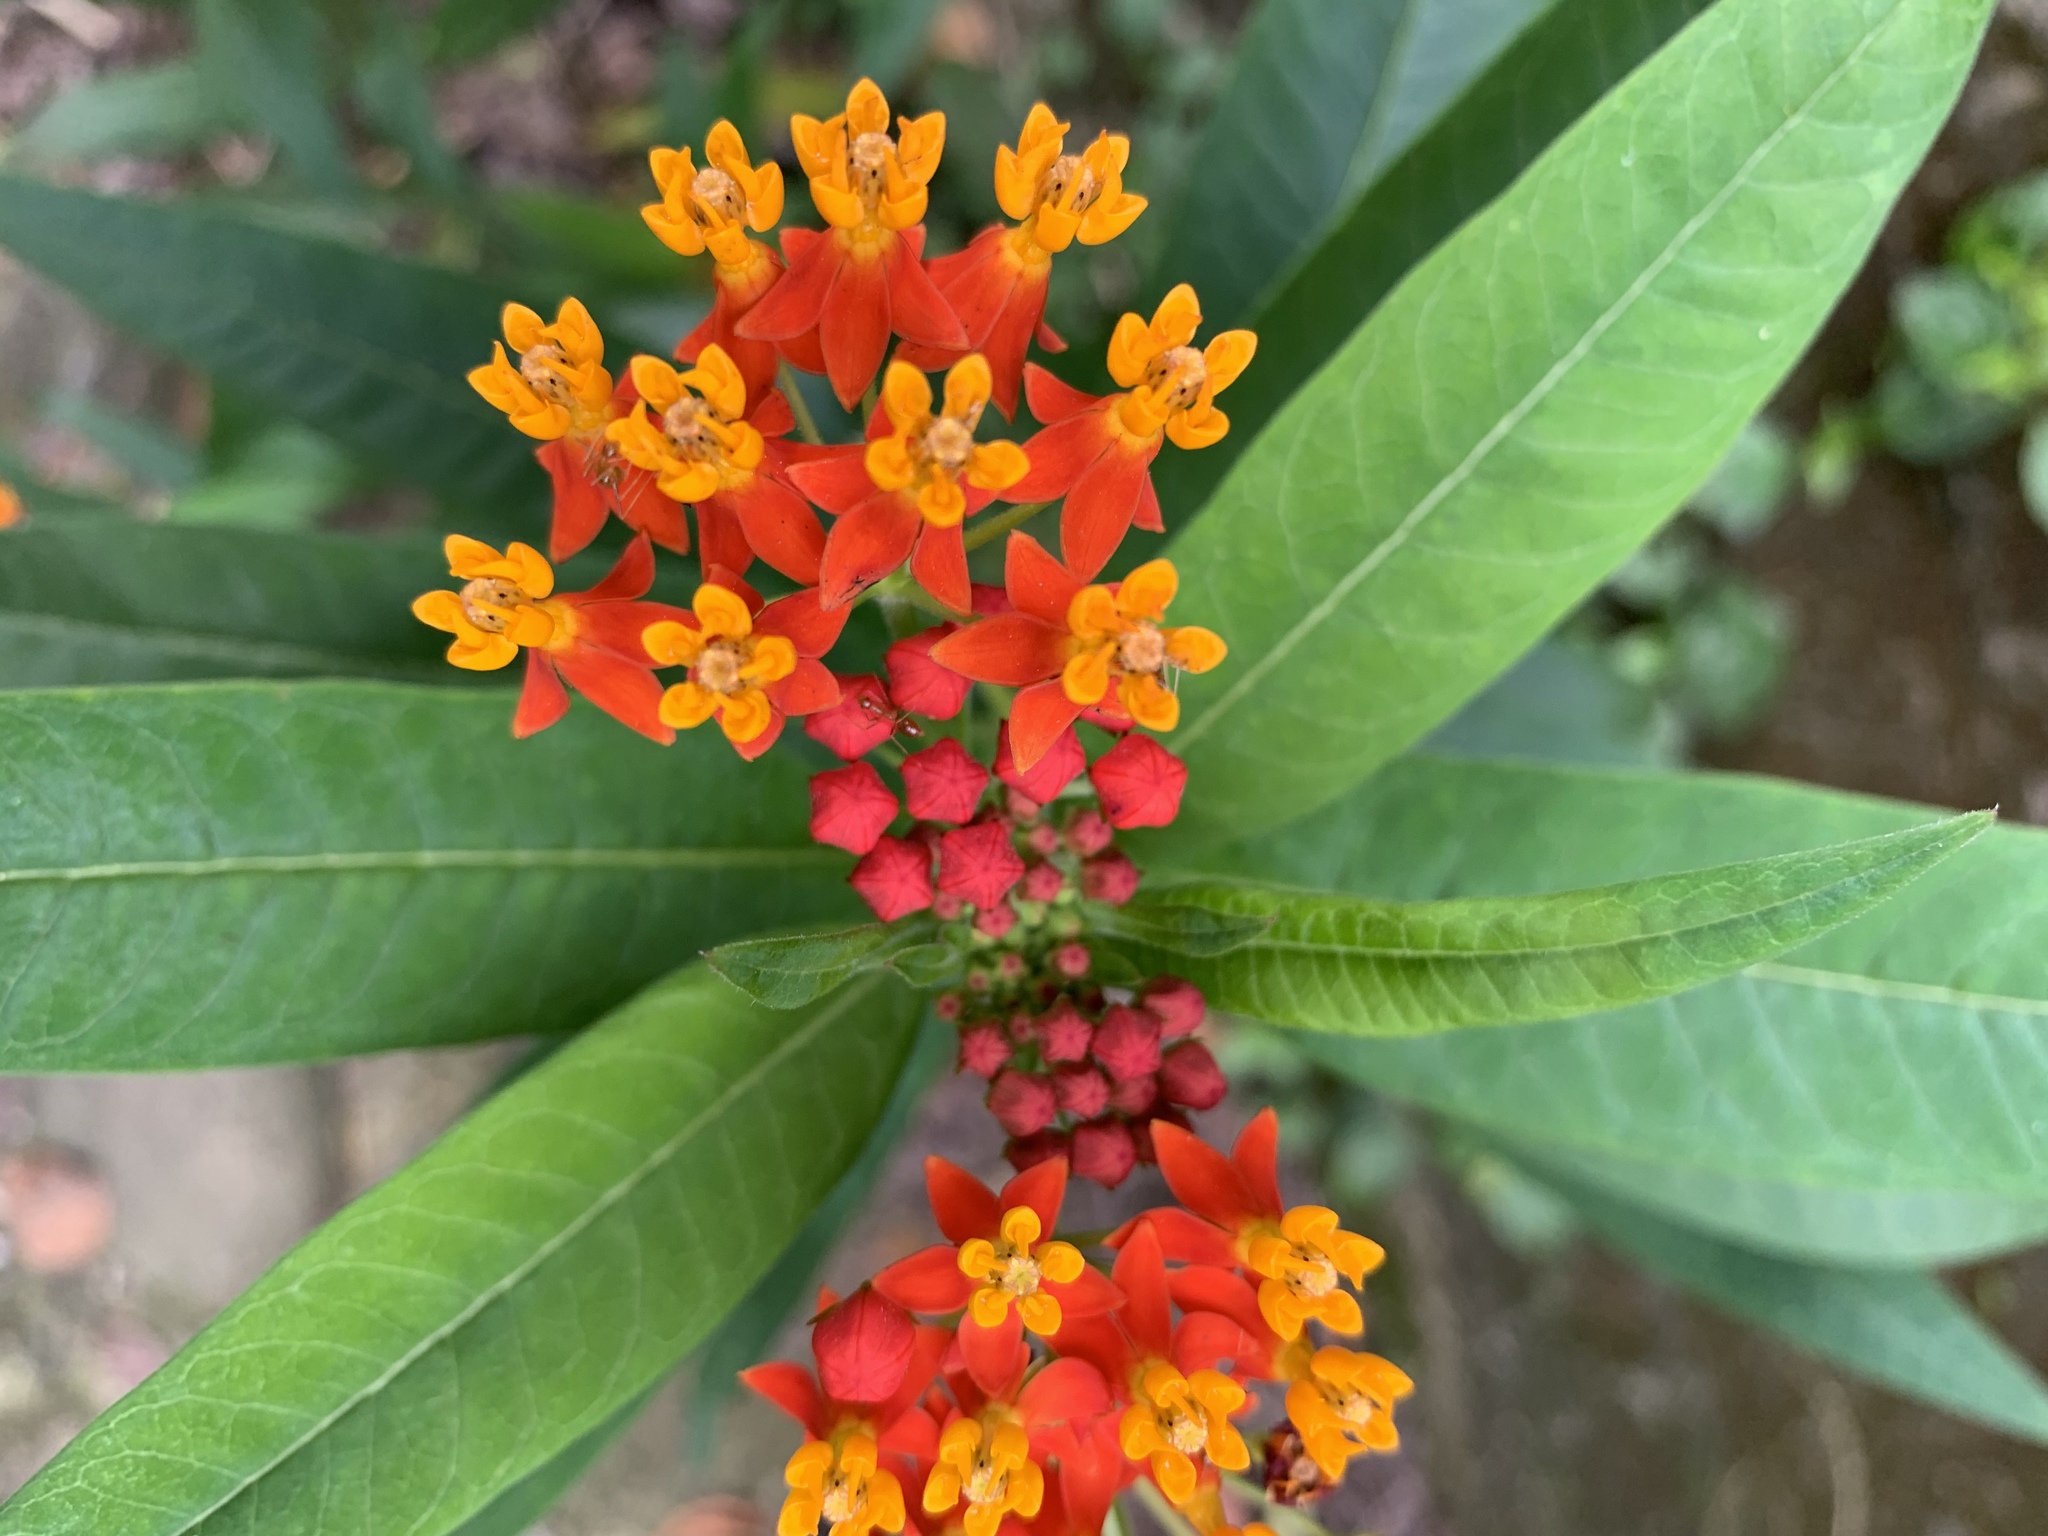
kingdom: Plantae
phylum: Tracheophyta
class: Magnoliopsida
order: Gentianales
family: Apocynaceae
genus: Asclepias
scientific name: Asclepias curassavica
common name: Bloodflower
